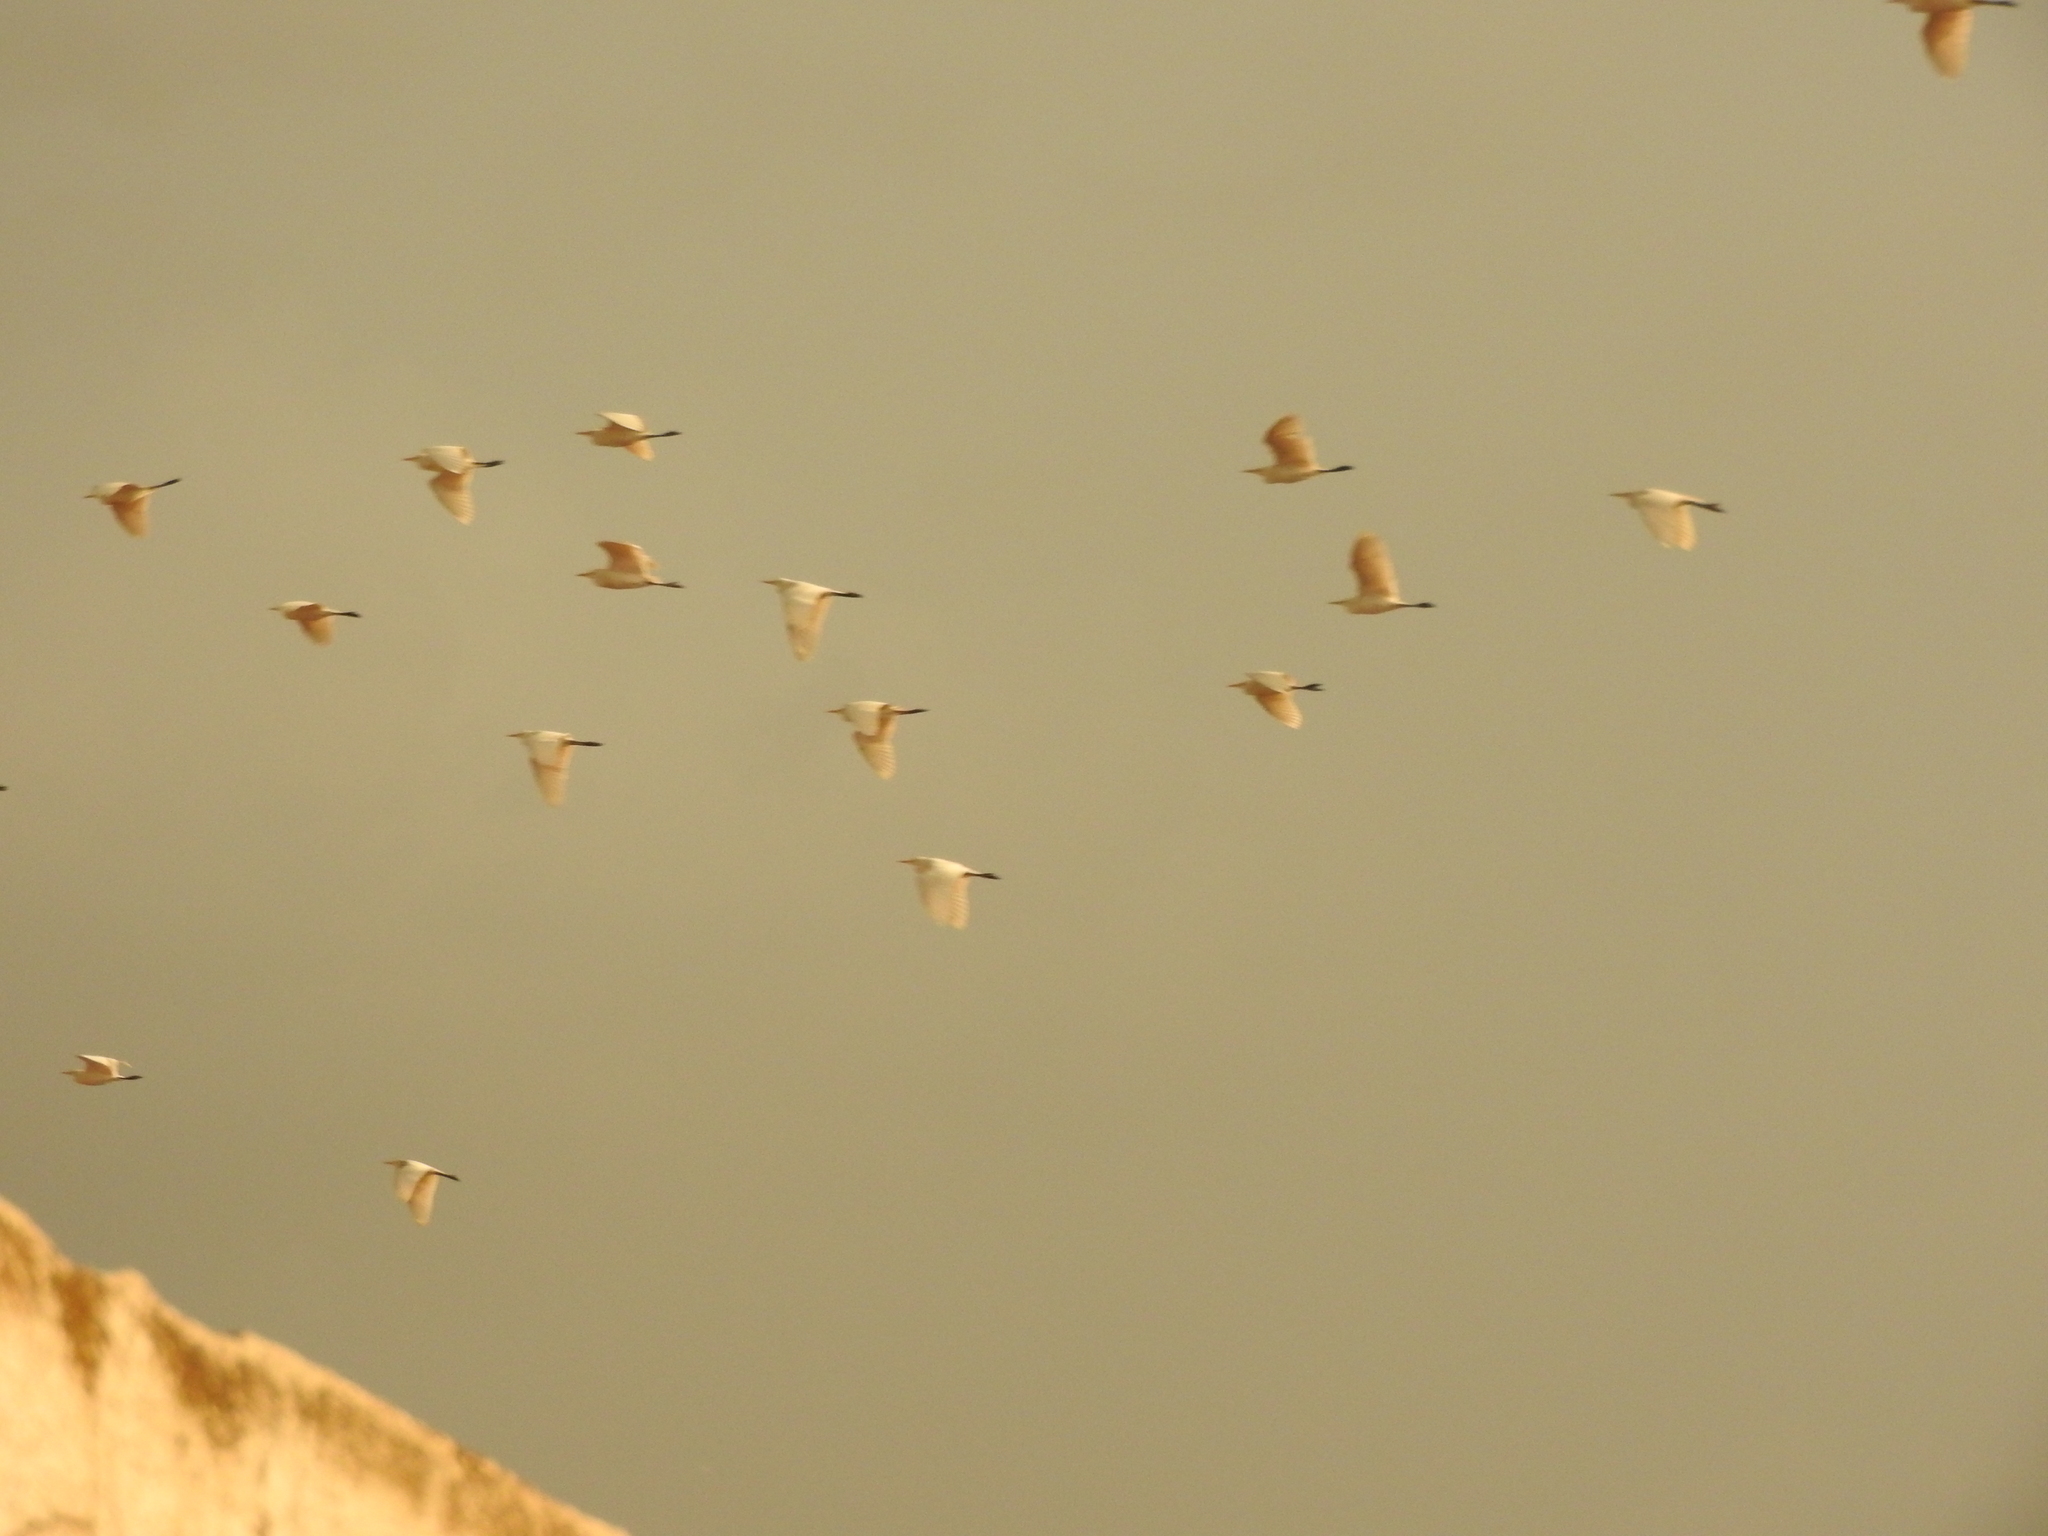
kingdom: Animalia
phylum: Chordata
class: Aves
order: Pelecaniformes
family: Ardeidae
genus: Bubulcus
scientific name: Bubulcus ibis
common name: Cattle egret
